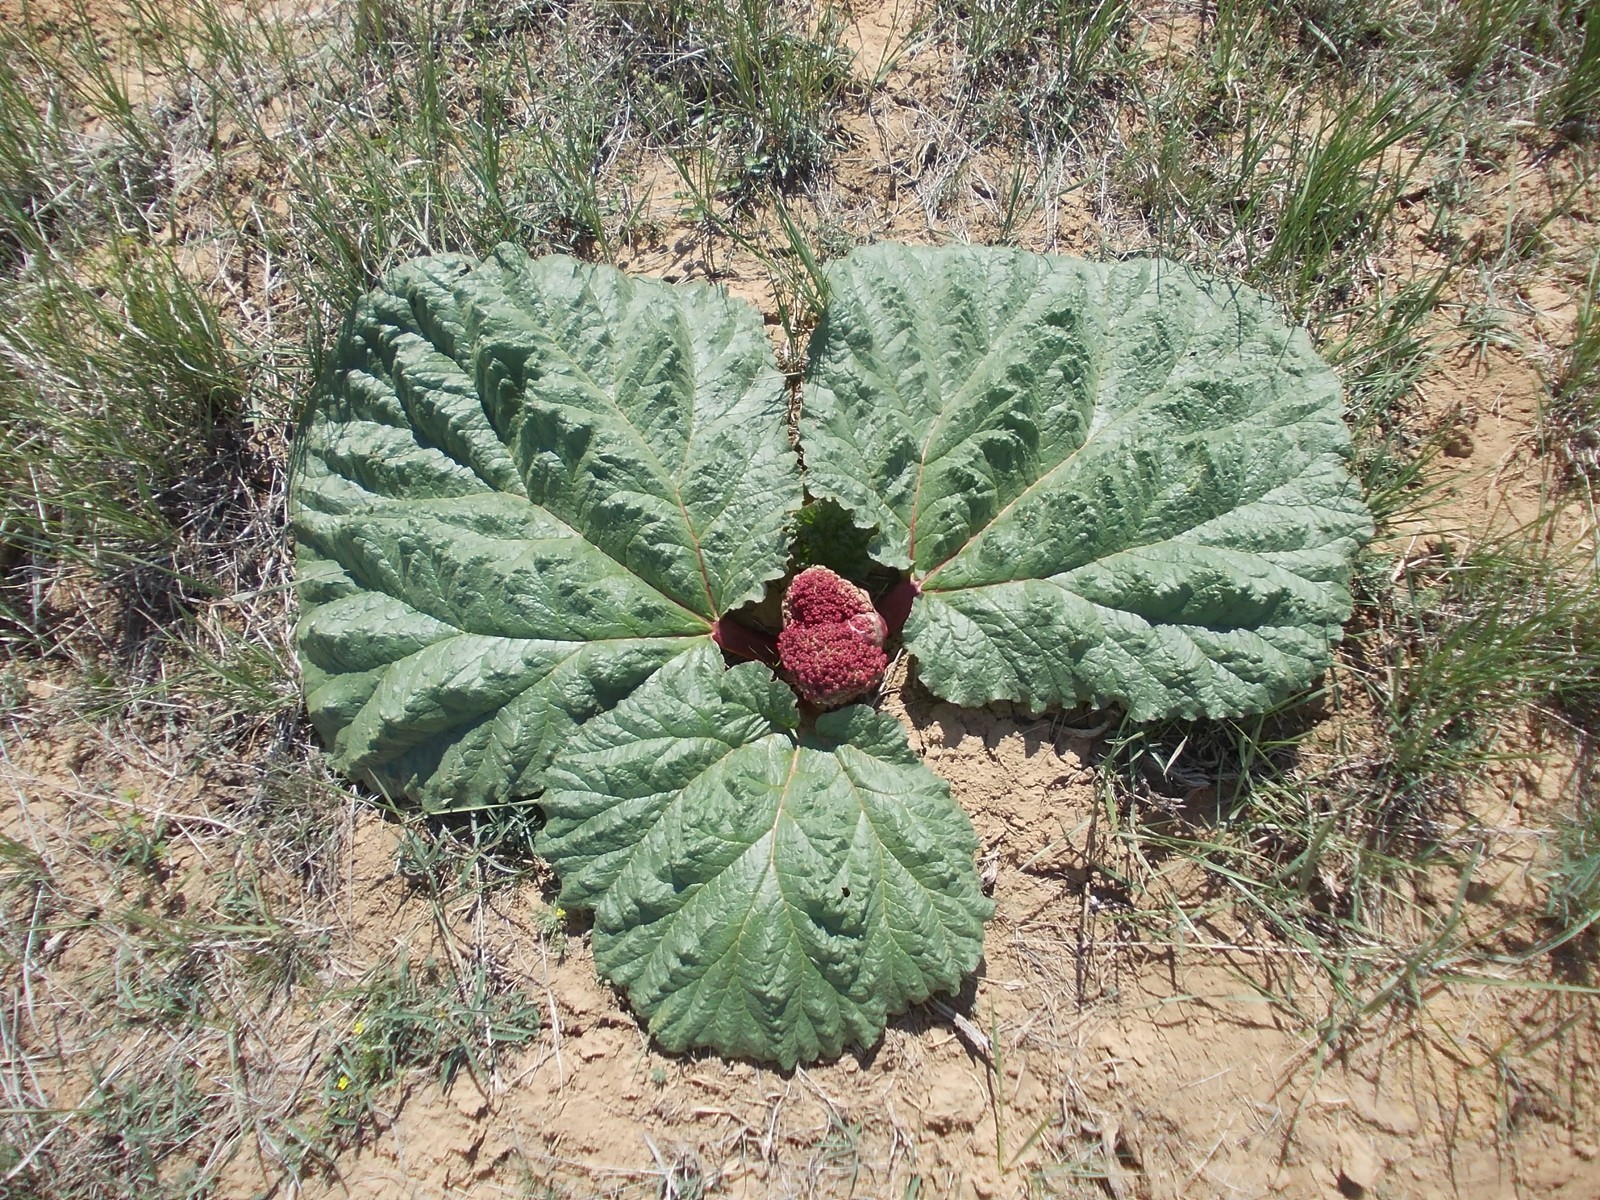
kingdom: Plantae
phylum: Tracheophyta
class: Magnoliopsida
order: Caryophyllales
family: Polygonaceae
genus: Rheum
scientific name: Rheum tataricum
